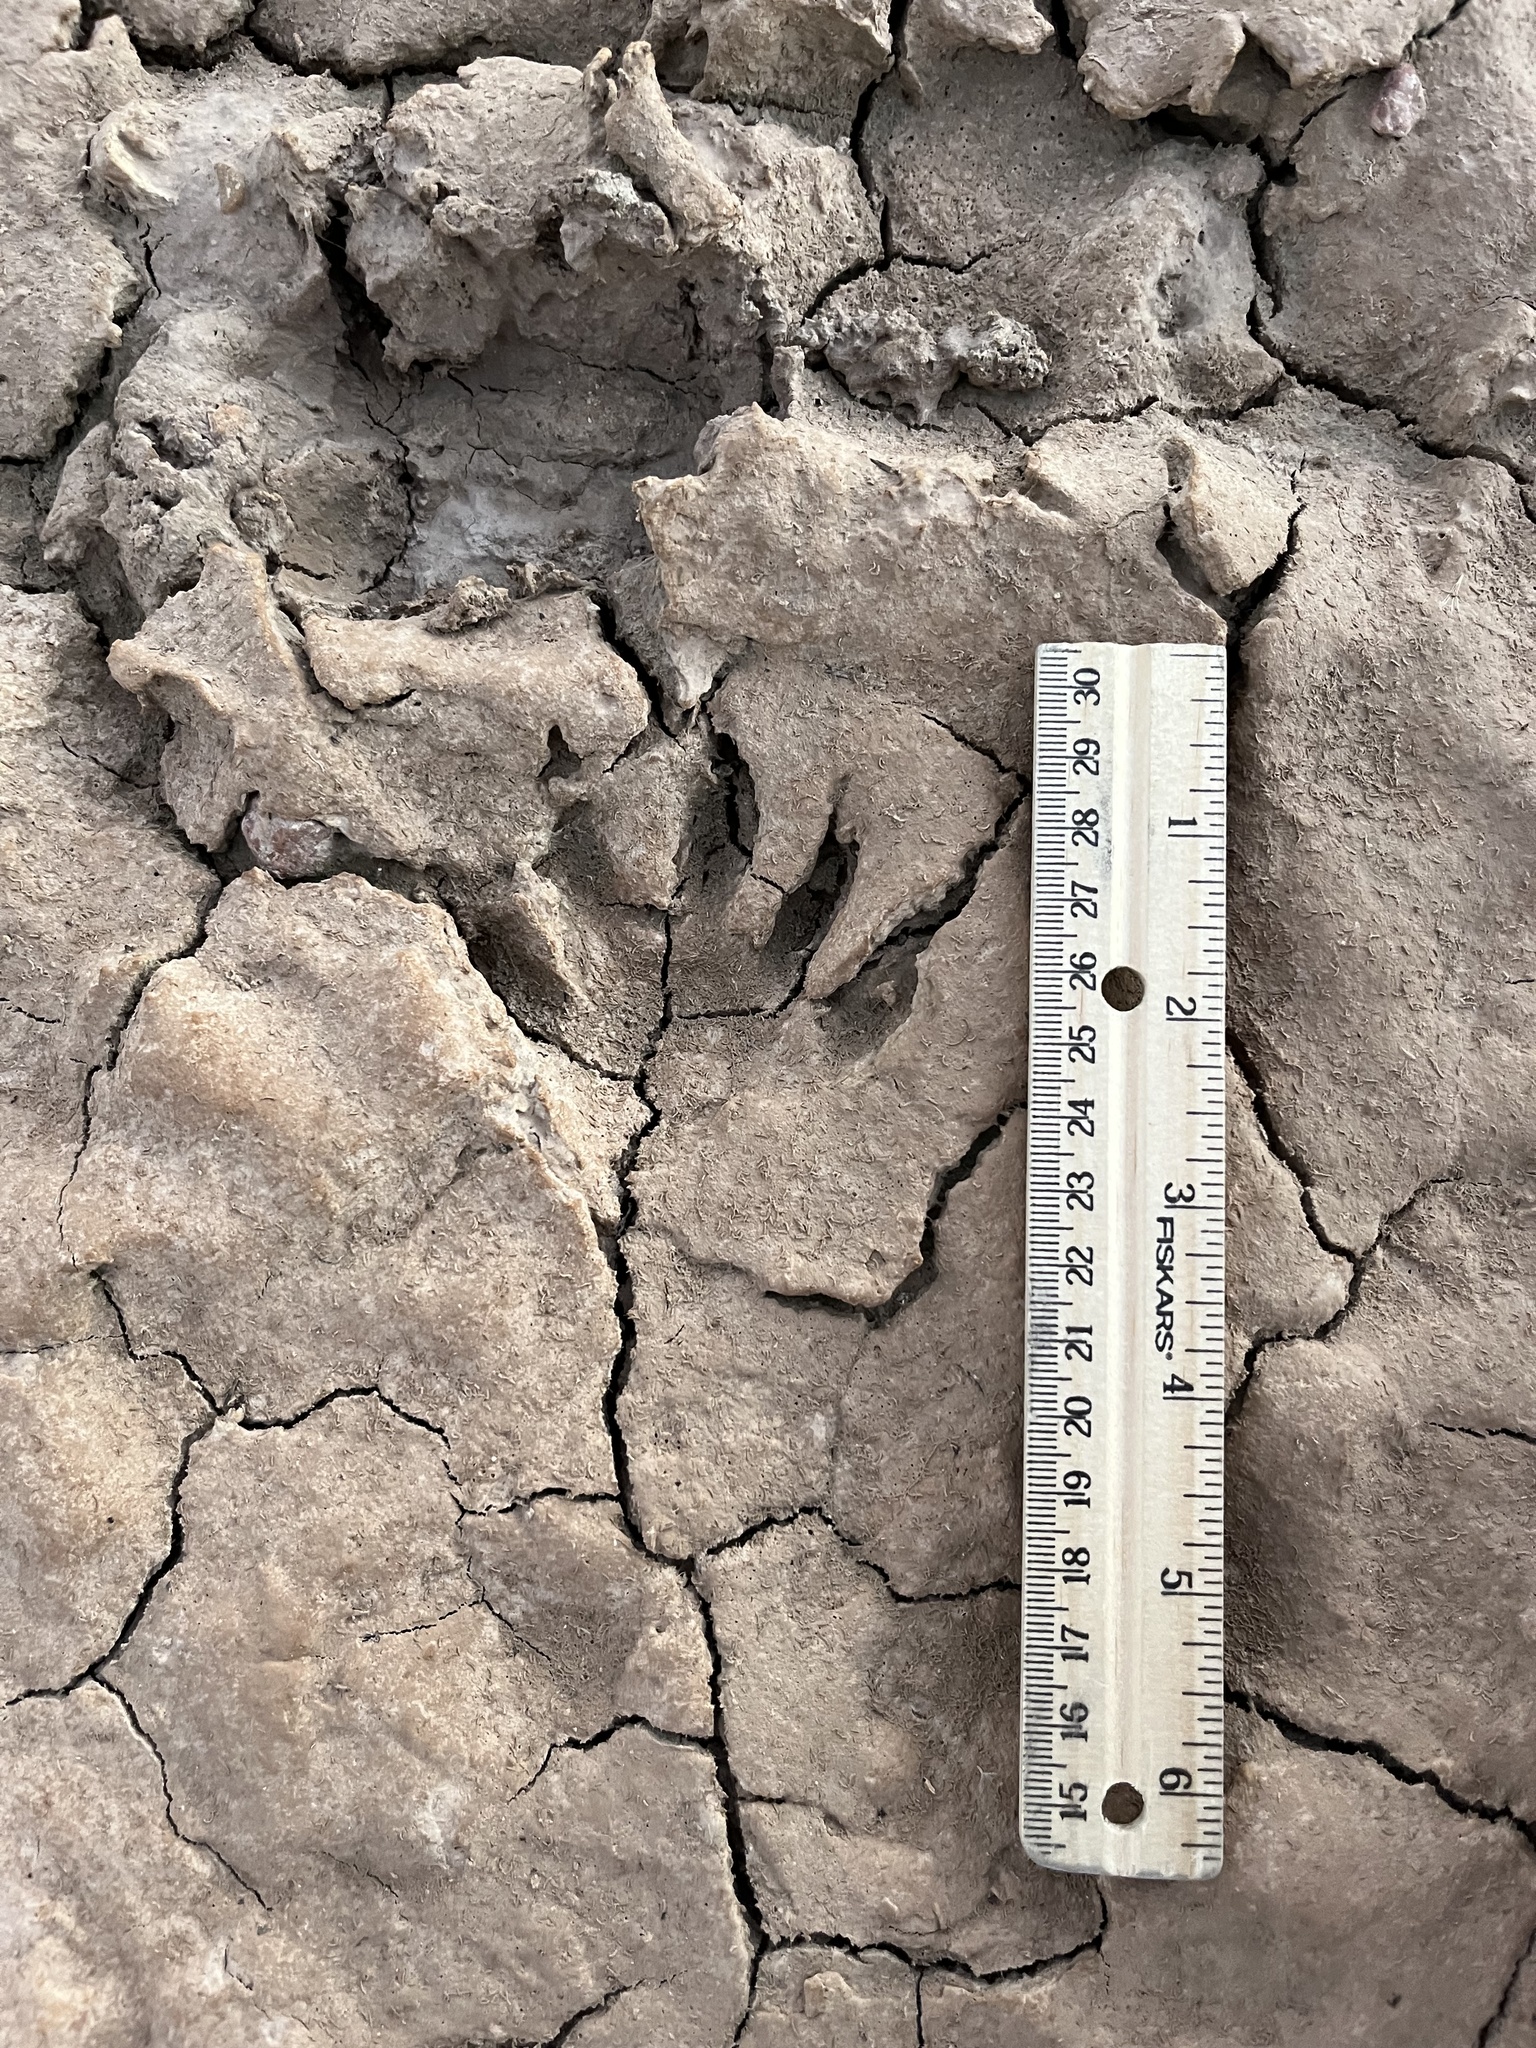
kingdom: Animalia
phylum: Chordata
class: Mammalia
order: Carnivora
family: Procyonidae
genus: Procyon
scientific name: Procyon lotor
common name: Raccoon
